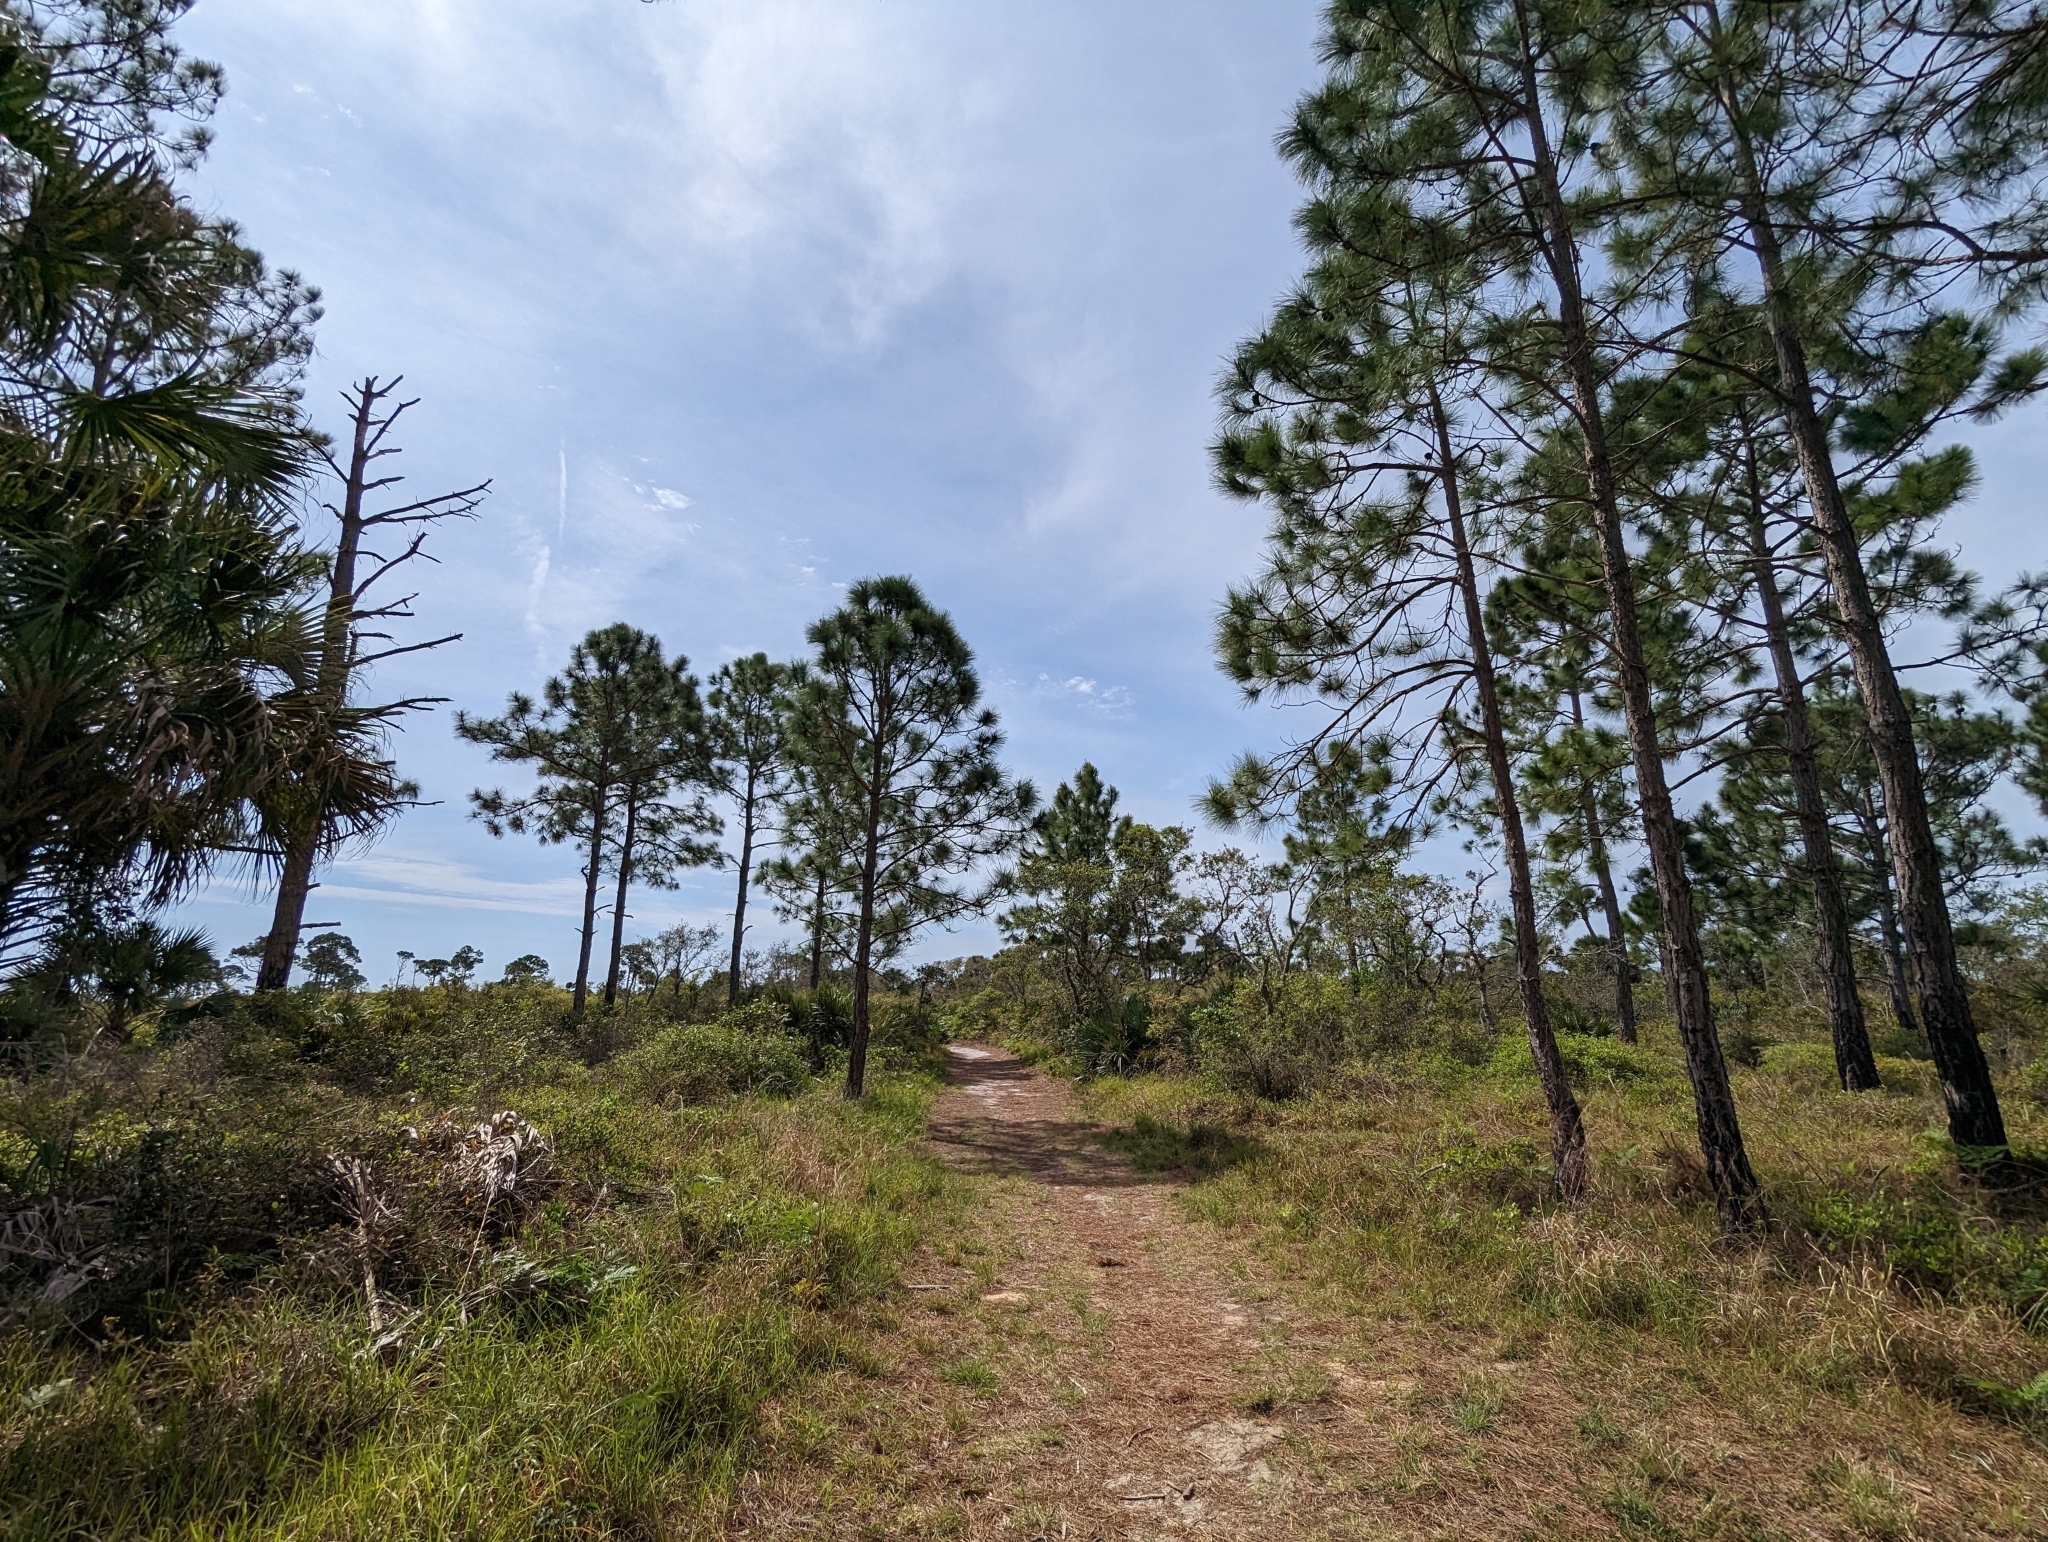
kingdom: Plantae
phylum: Tracheophyta
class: Pinopsida
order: Pinales
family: Pinaceae
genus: Pinus
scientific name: Pinus elliottii
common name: Slash pine
